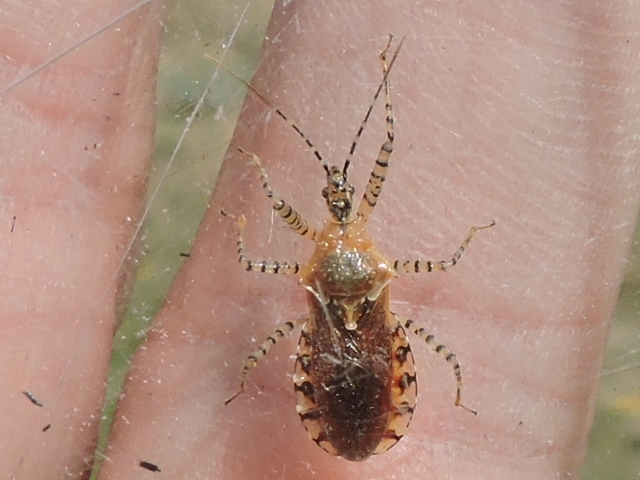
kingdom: Animalia
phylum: Arthropoda
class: Insecta
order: Hemiptera
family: Reduviidae
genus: Pselliopus
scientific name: Pselliopus latifasciatus
